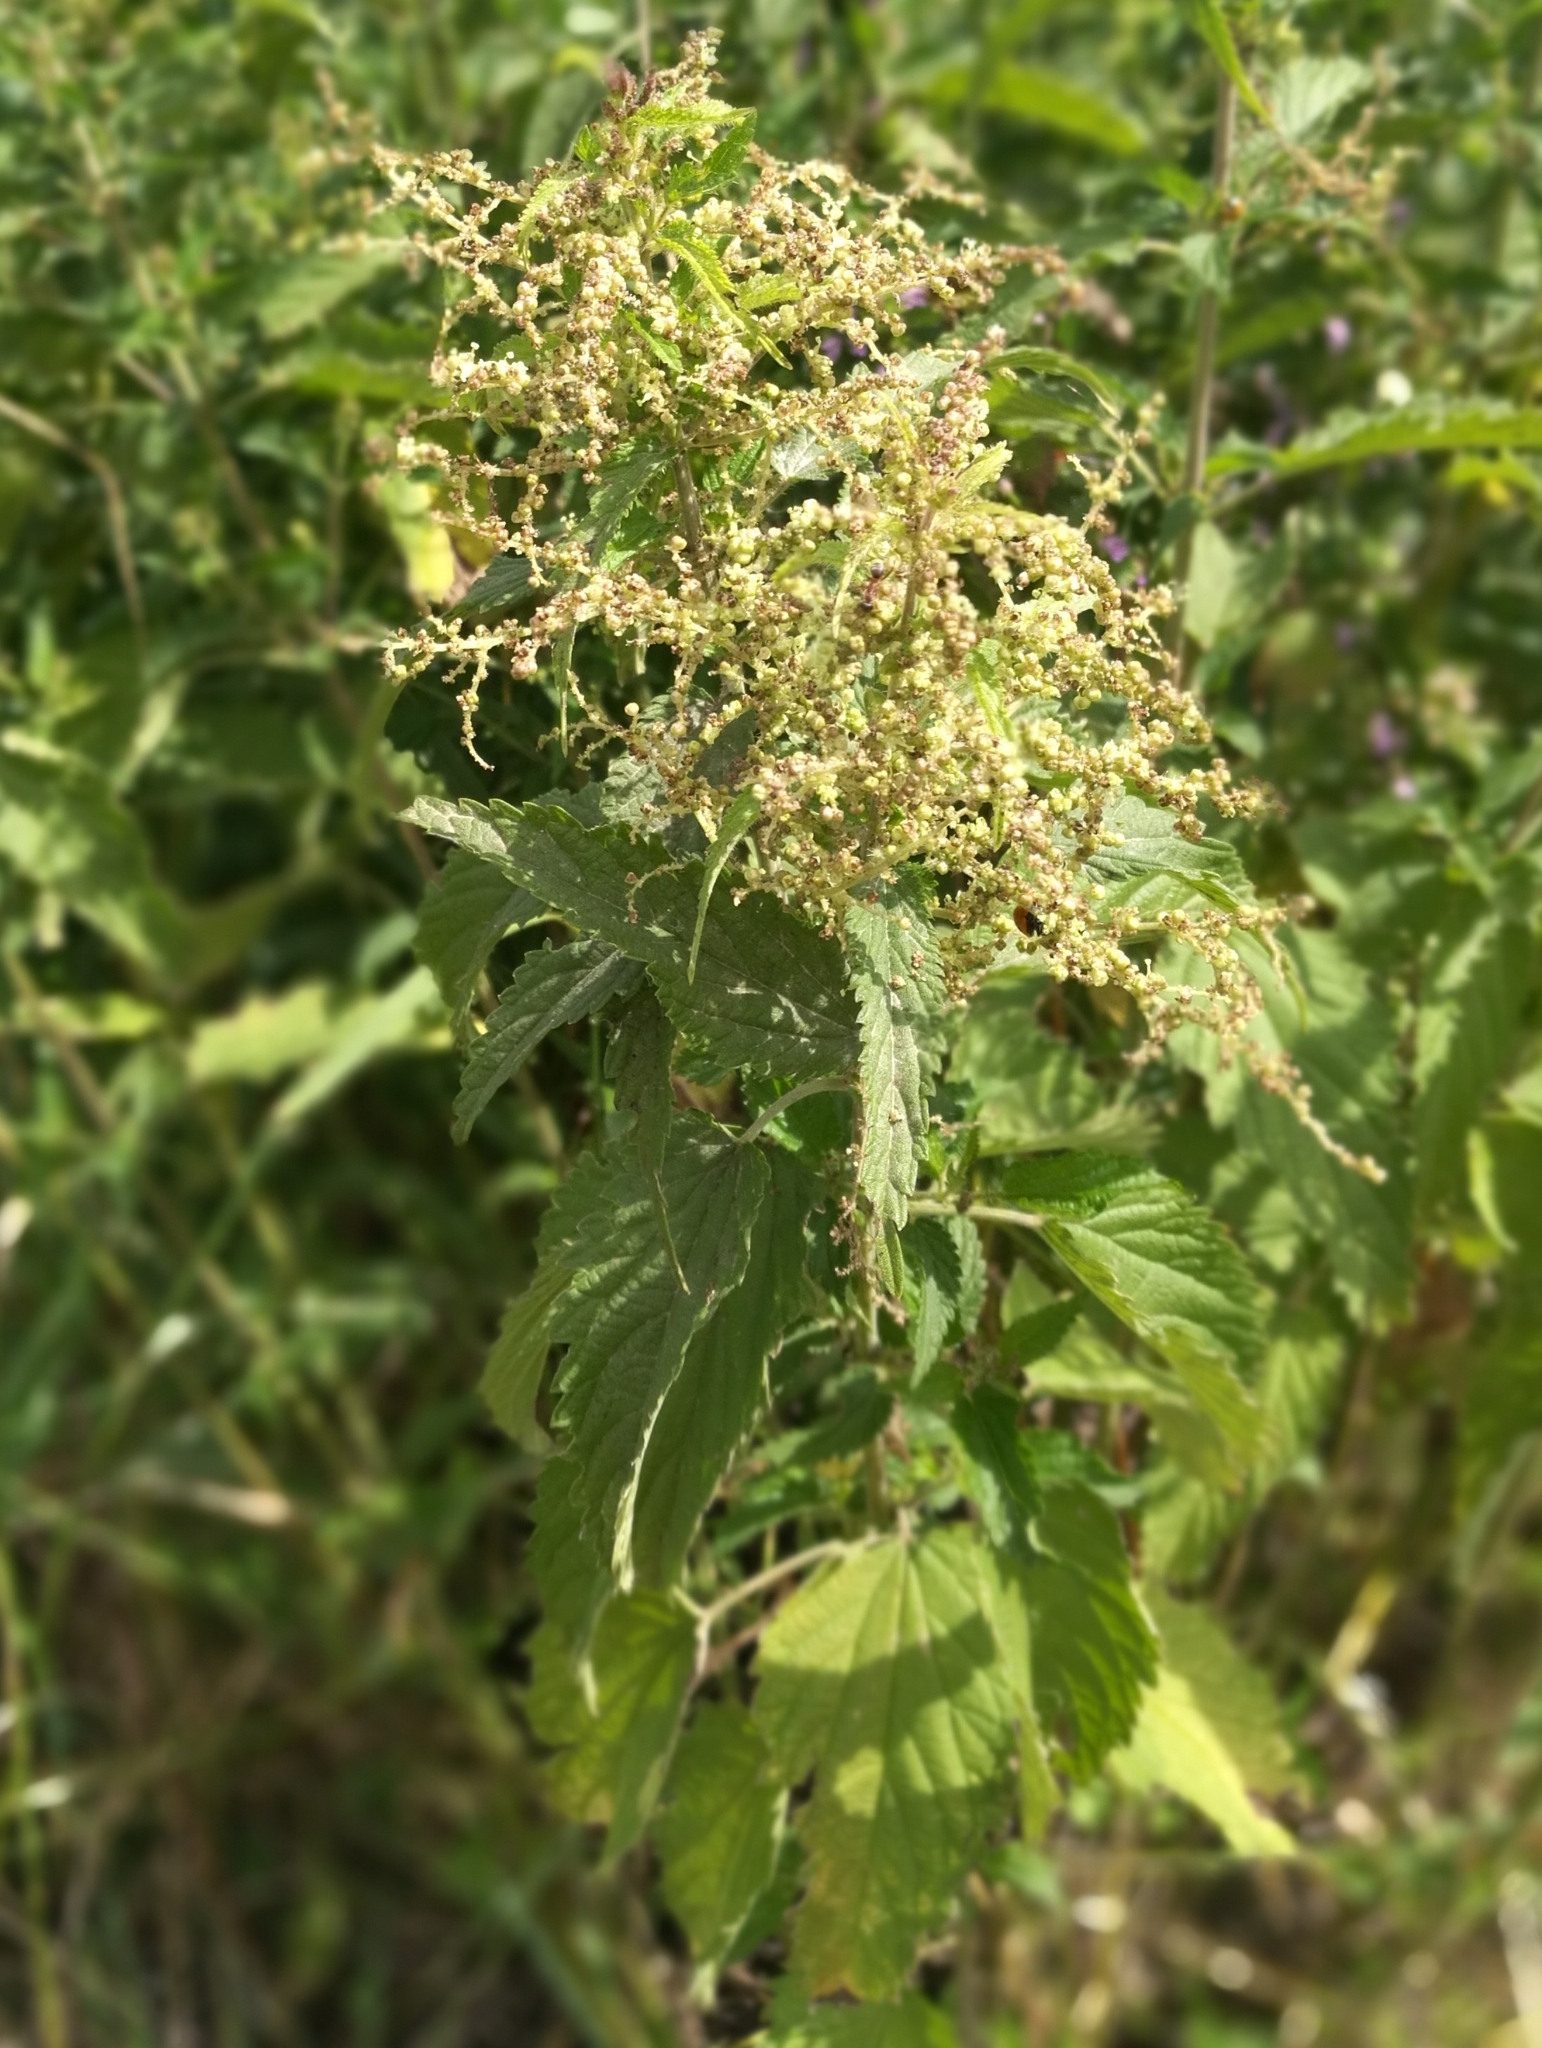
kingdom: Plantae
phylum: Tracheophyta
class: Magnoliopsida
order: Rosales
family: Urticaceae
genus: Urtica
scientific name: Urtica dioica
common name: Common nettle
